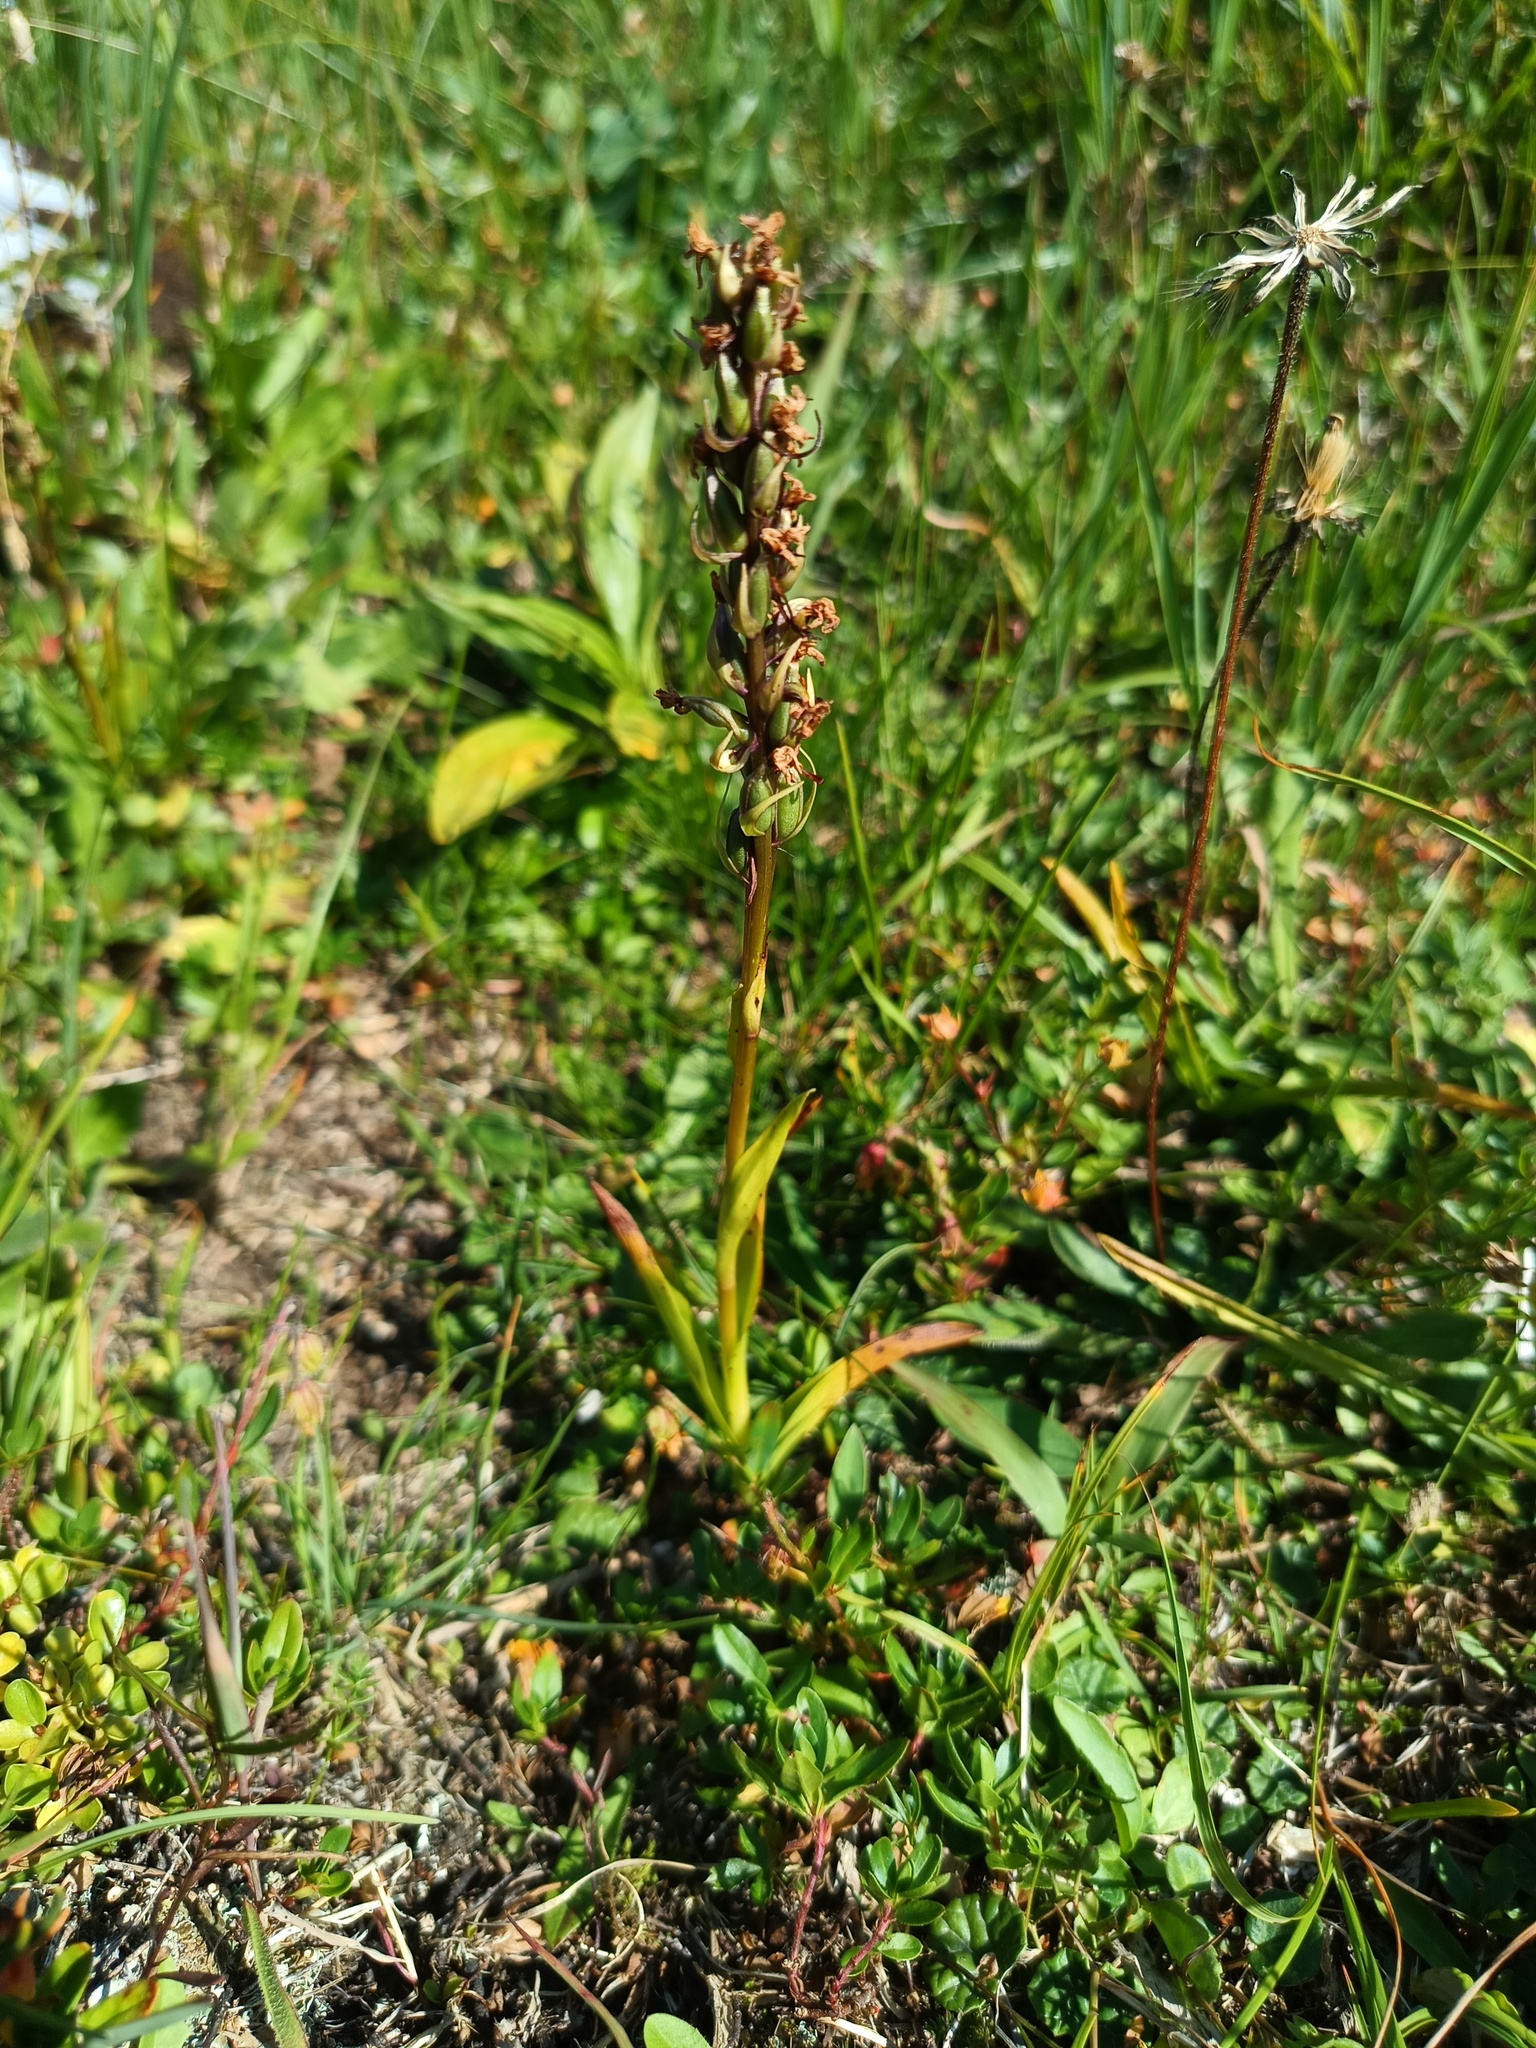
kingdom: Plantae
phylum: Tracheophyta
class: Liliopsida
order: Asparagales
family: Orchidaceae
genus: Gymnadenia
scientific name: Gymnadenia conopsea
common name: Fragrant orchid
